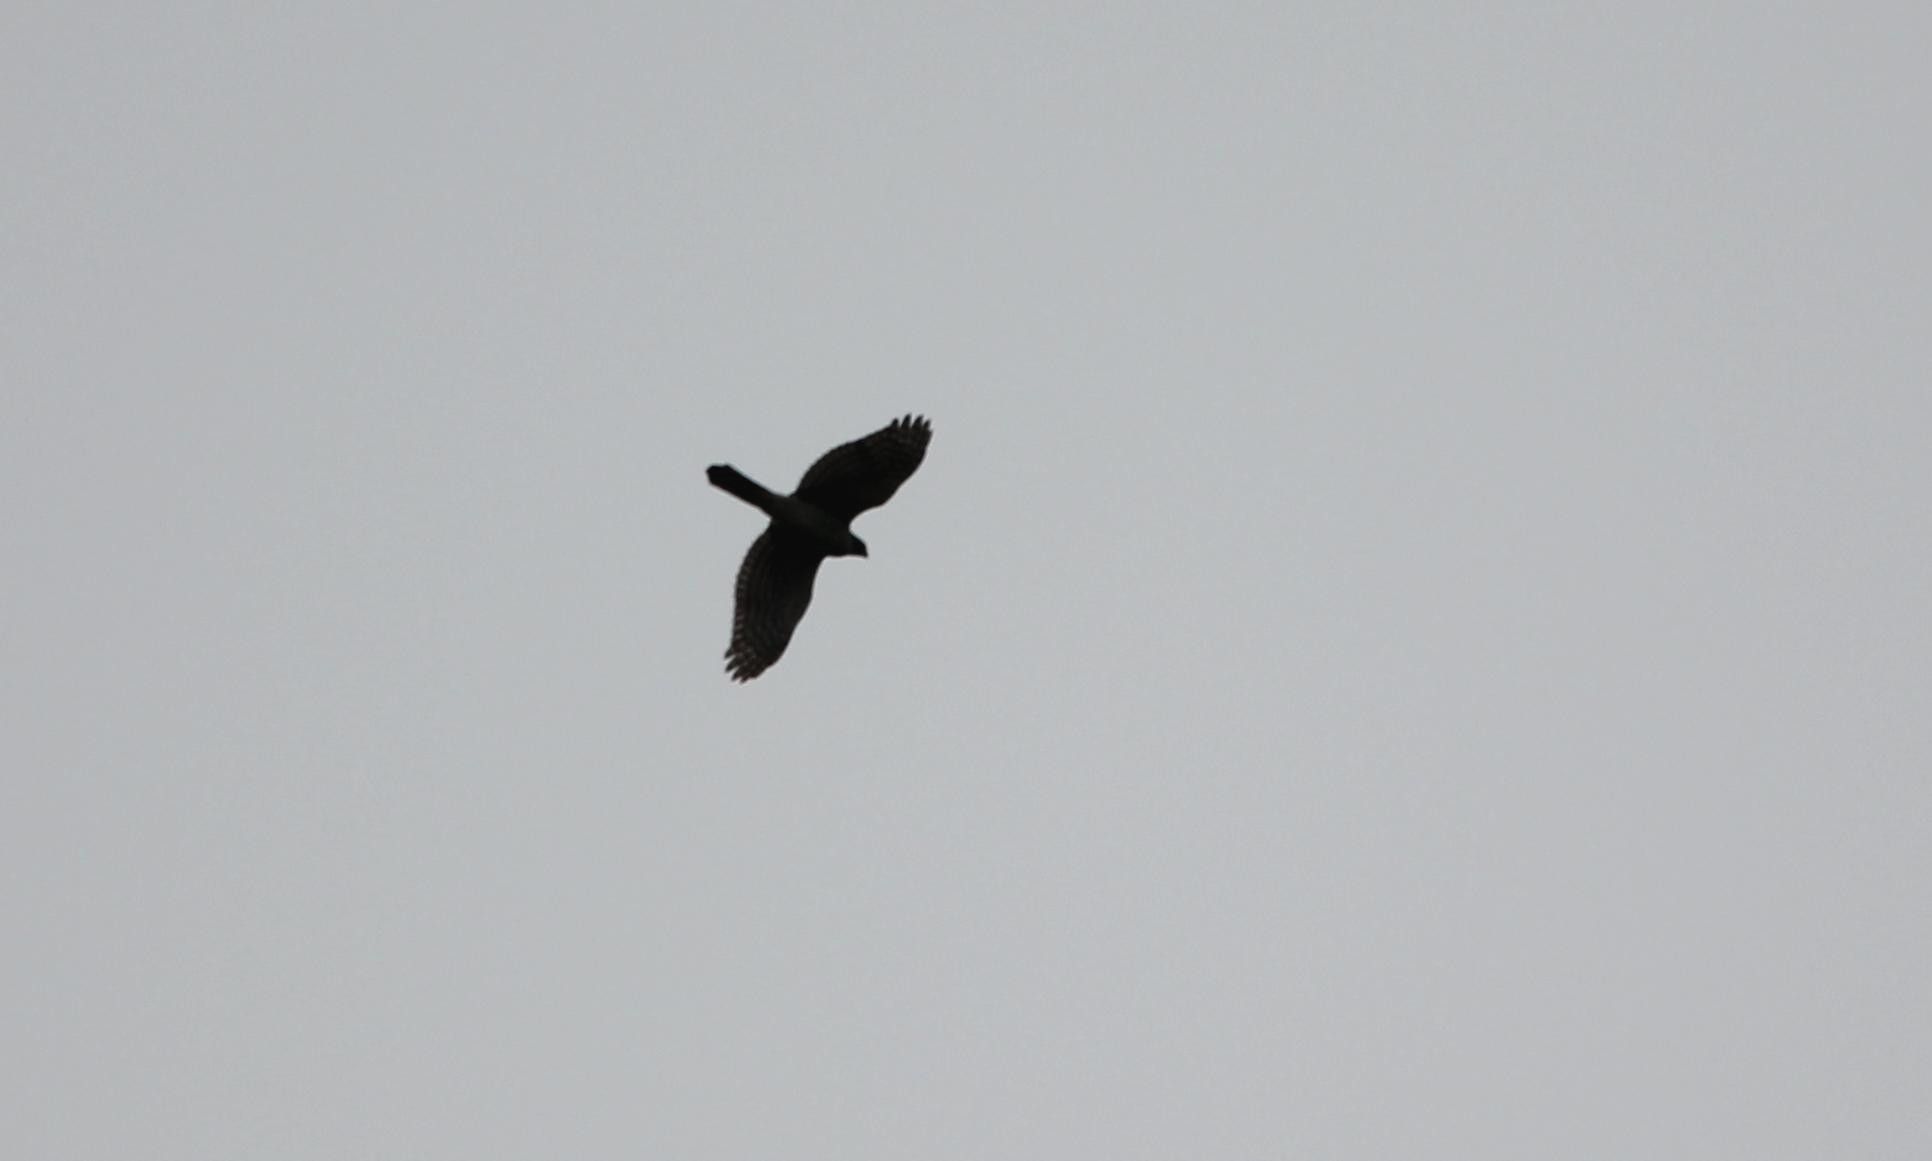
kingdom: Animalia
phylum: Chordata
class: Aves
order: Accipitriformes
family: Accipitridae
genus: Accipiter
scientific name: Accipiter cooperii
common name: Cooper's hawk
